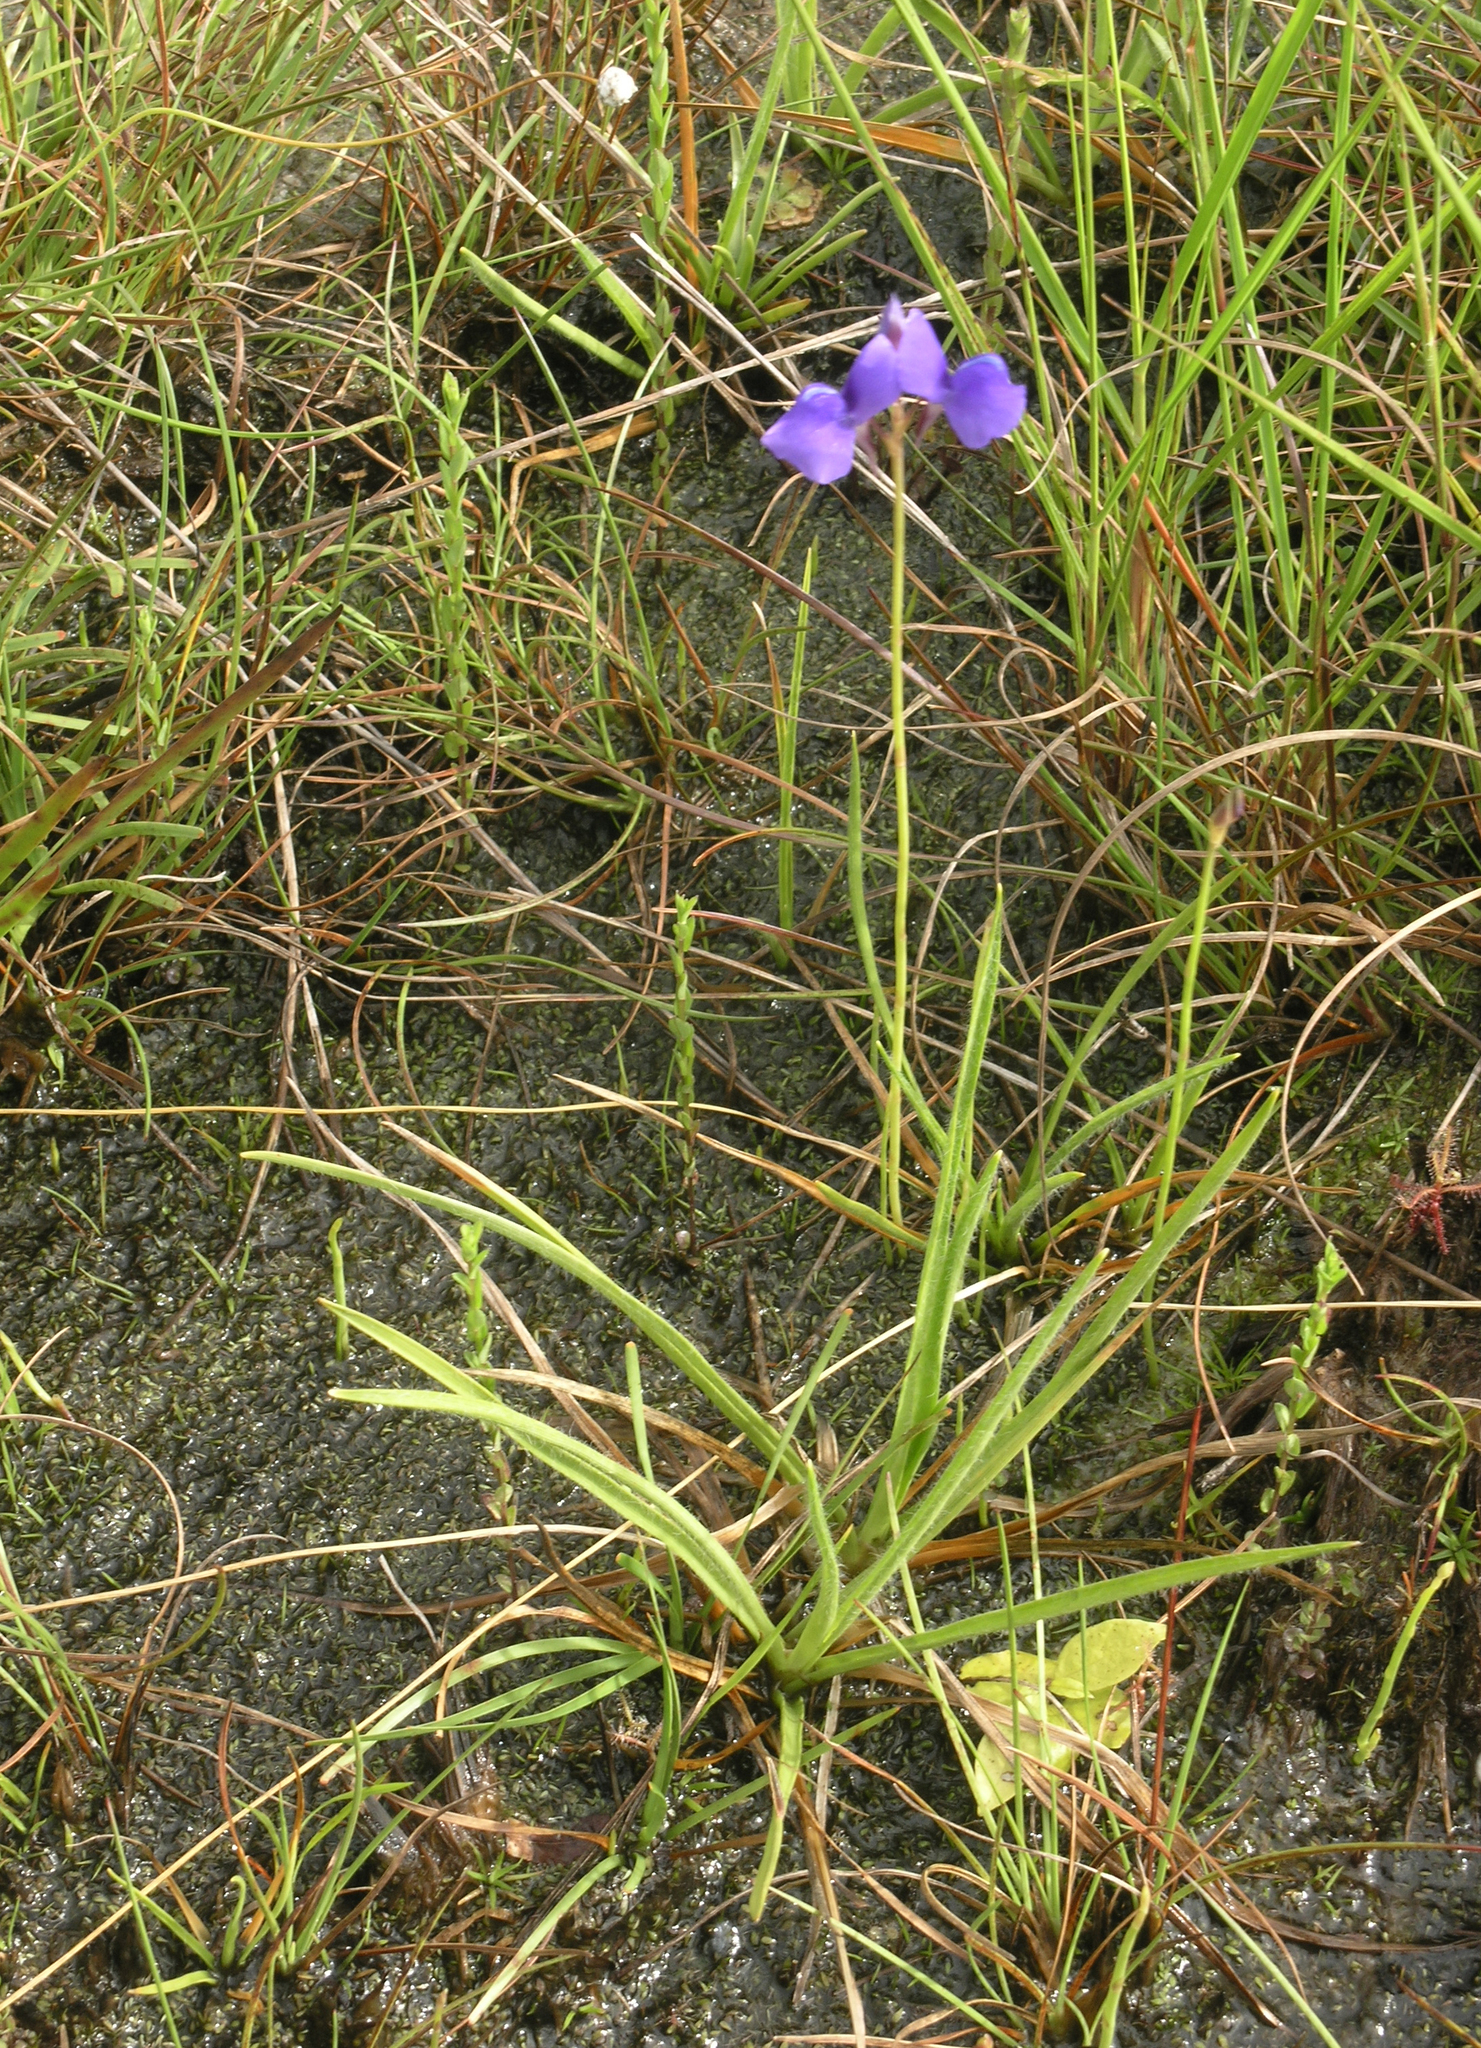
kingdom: Plantae
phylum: Tracheophyta
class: Magnoliopsida
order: Lamiales
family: Lentibulariaceae
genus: Utricularia
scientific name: Utricularia delphinioides
